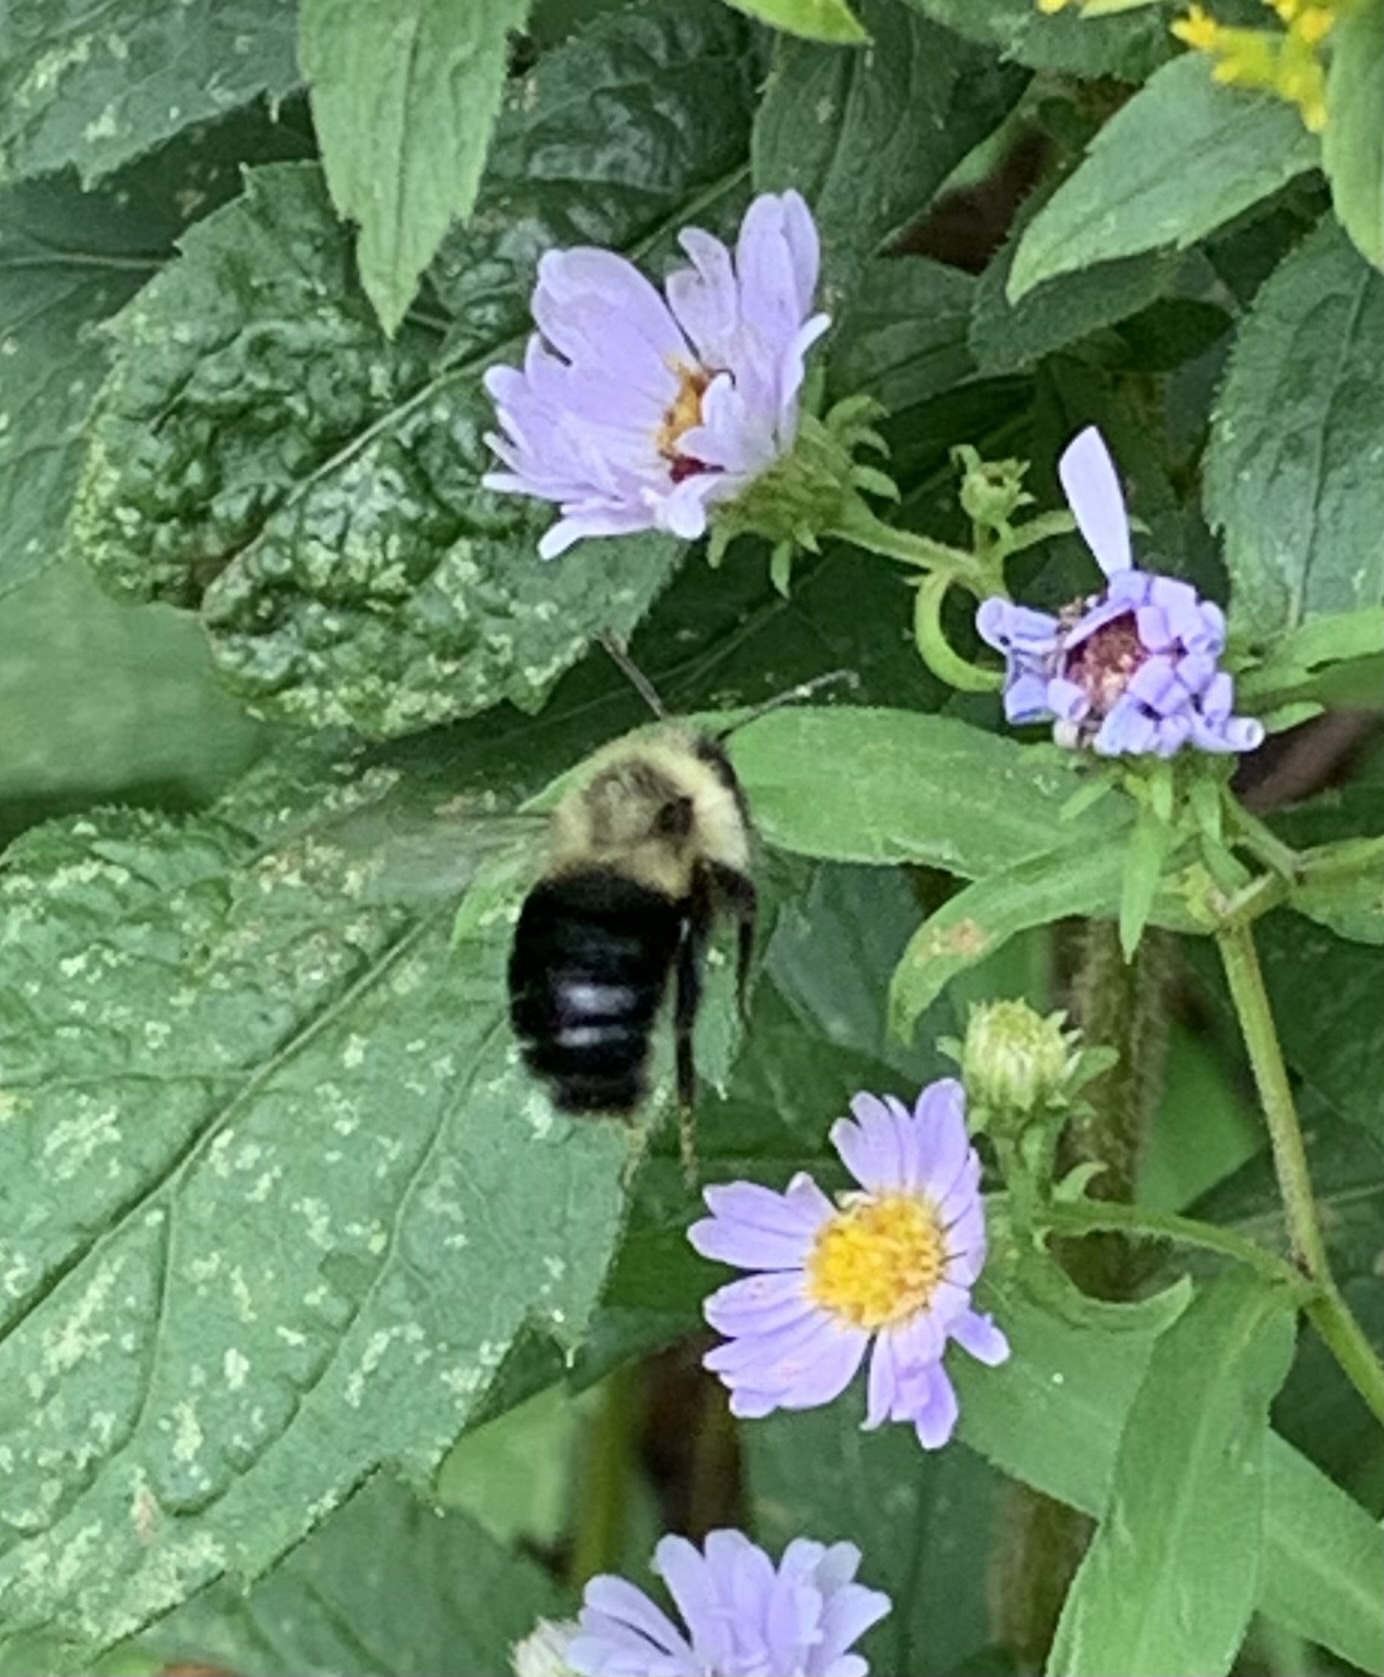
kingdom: Animalia
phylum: Arthropoda
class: Insecta
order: Hymenoptera
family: Apidae
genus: Bombus
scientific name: Bombus impatiens
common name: Common eastern bumble bee
